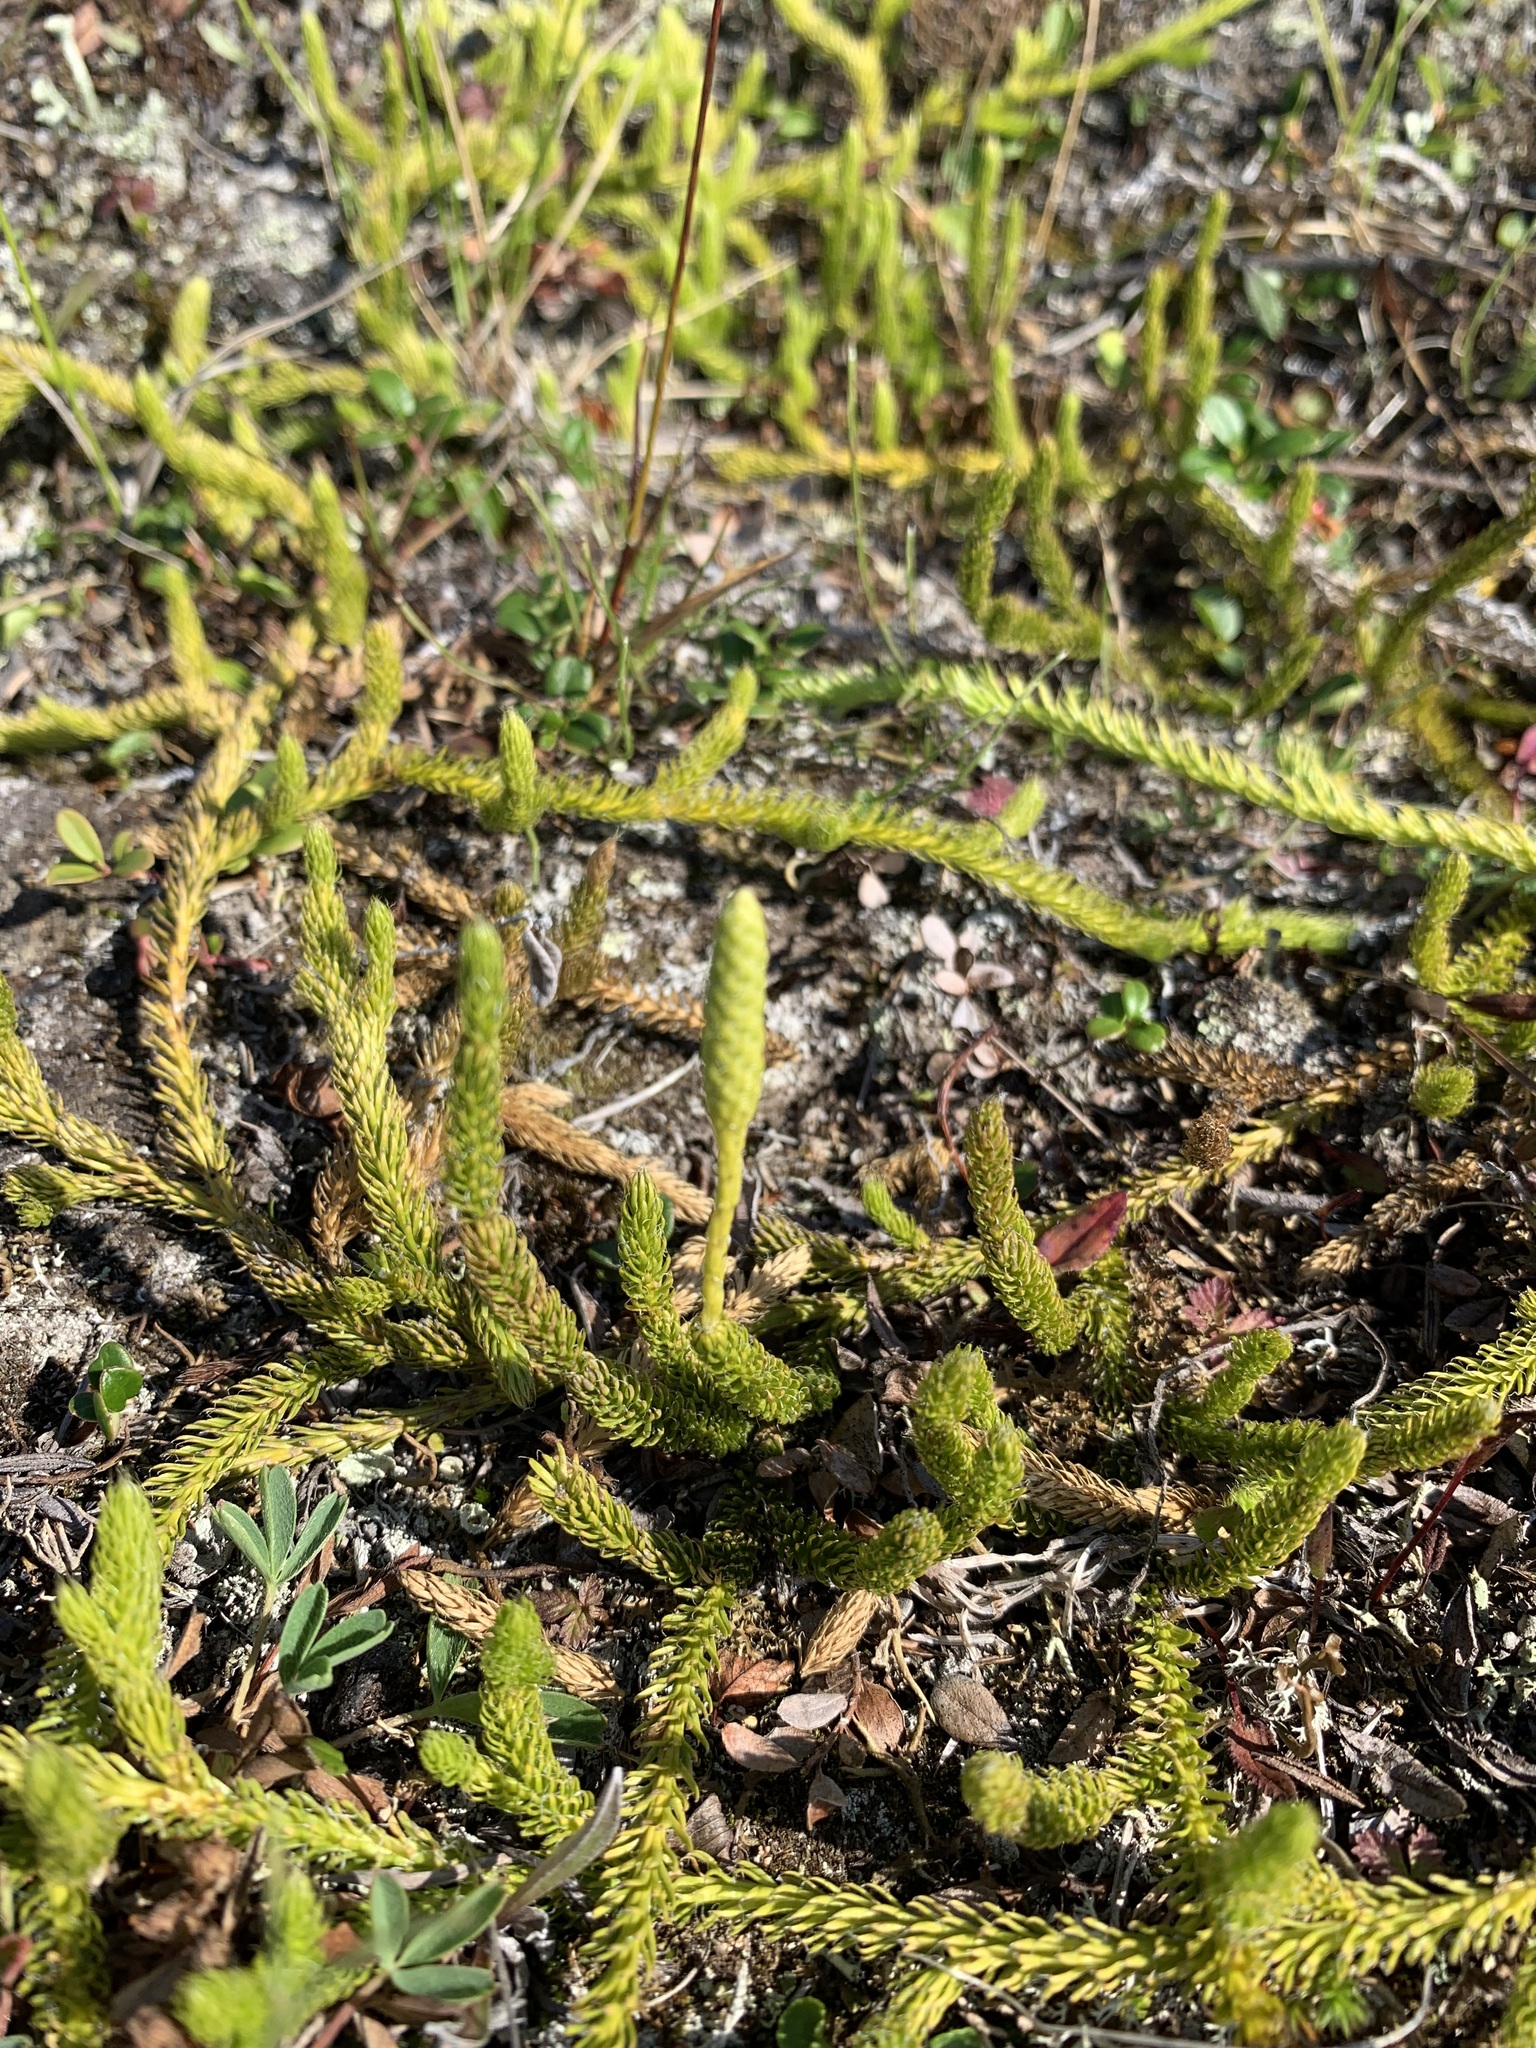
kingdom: Plantae
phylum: Tracheophyta
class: Lycopodiopsida
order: Lycopodiales
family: Lycopodiaceae
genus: Lycopodium
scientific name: Lycopodium lagopus
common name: One-cone clubmoss
